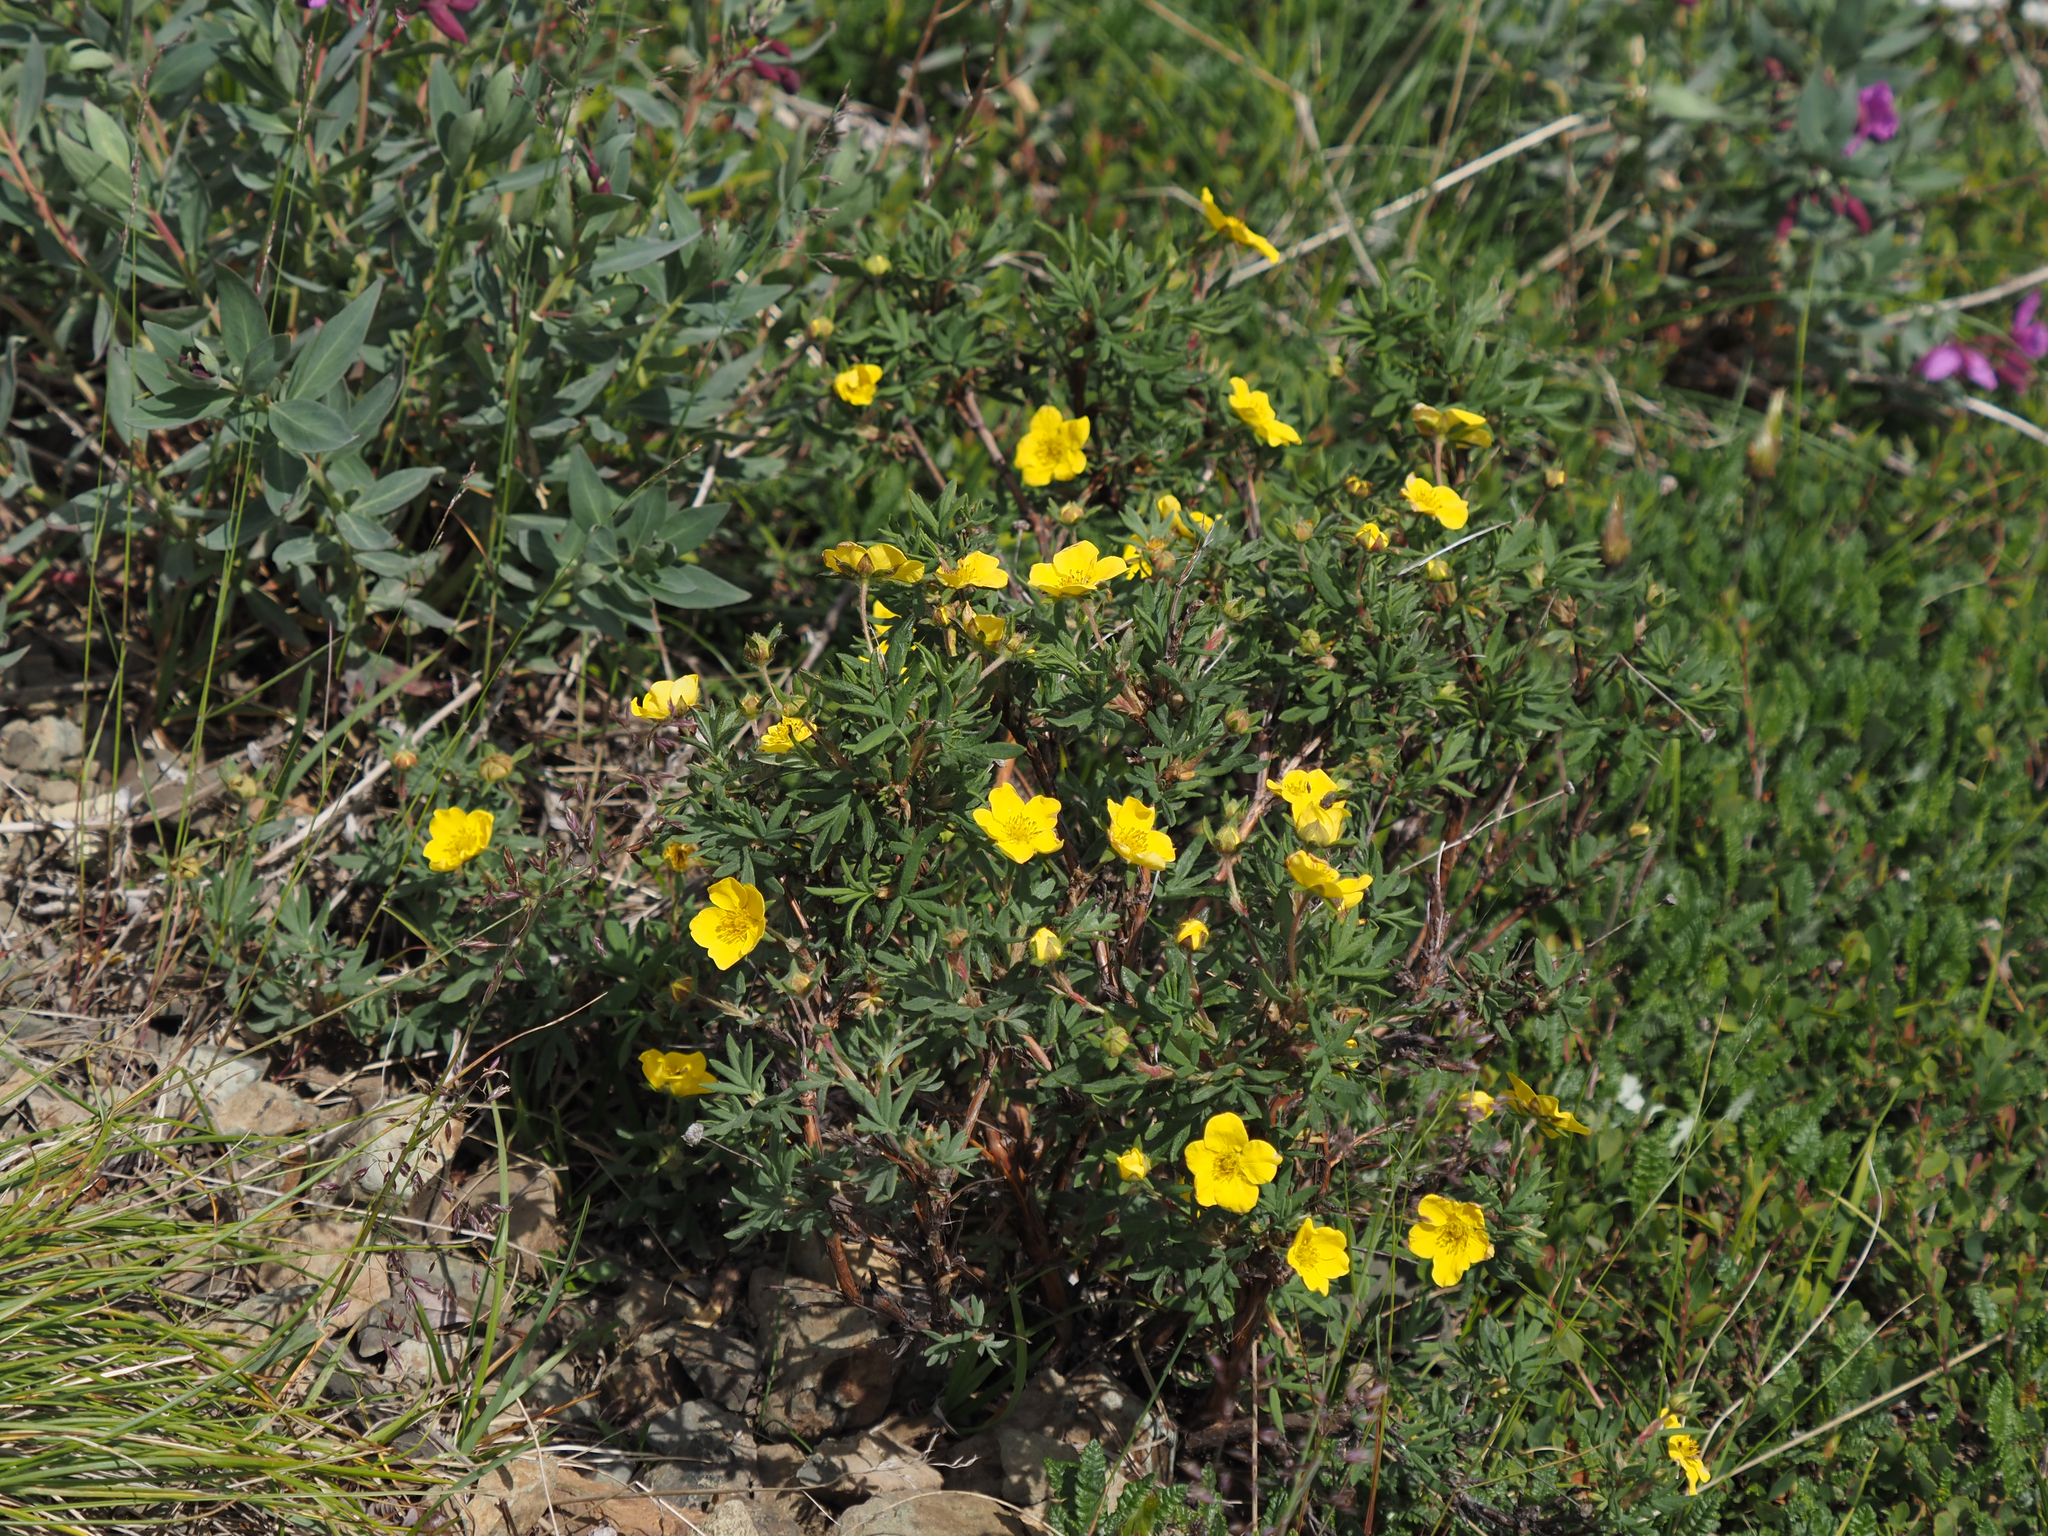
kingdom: Plantae
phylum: Tracheophyta
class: Magnoliopsida
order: Rosales
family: Rosaceae
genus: Dasiphora
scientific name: Dasiphora fruticosa
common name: Shrubby cinquefoil
